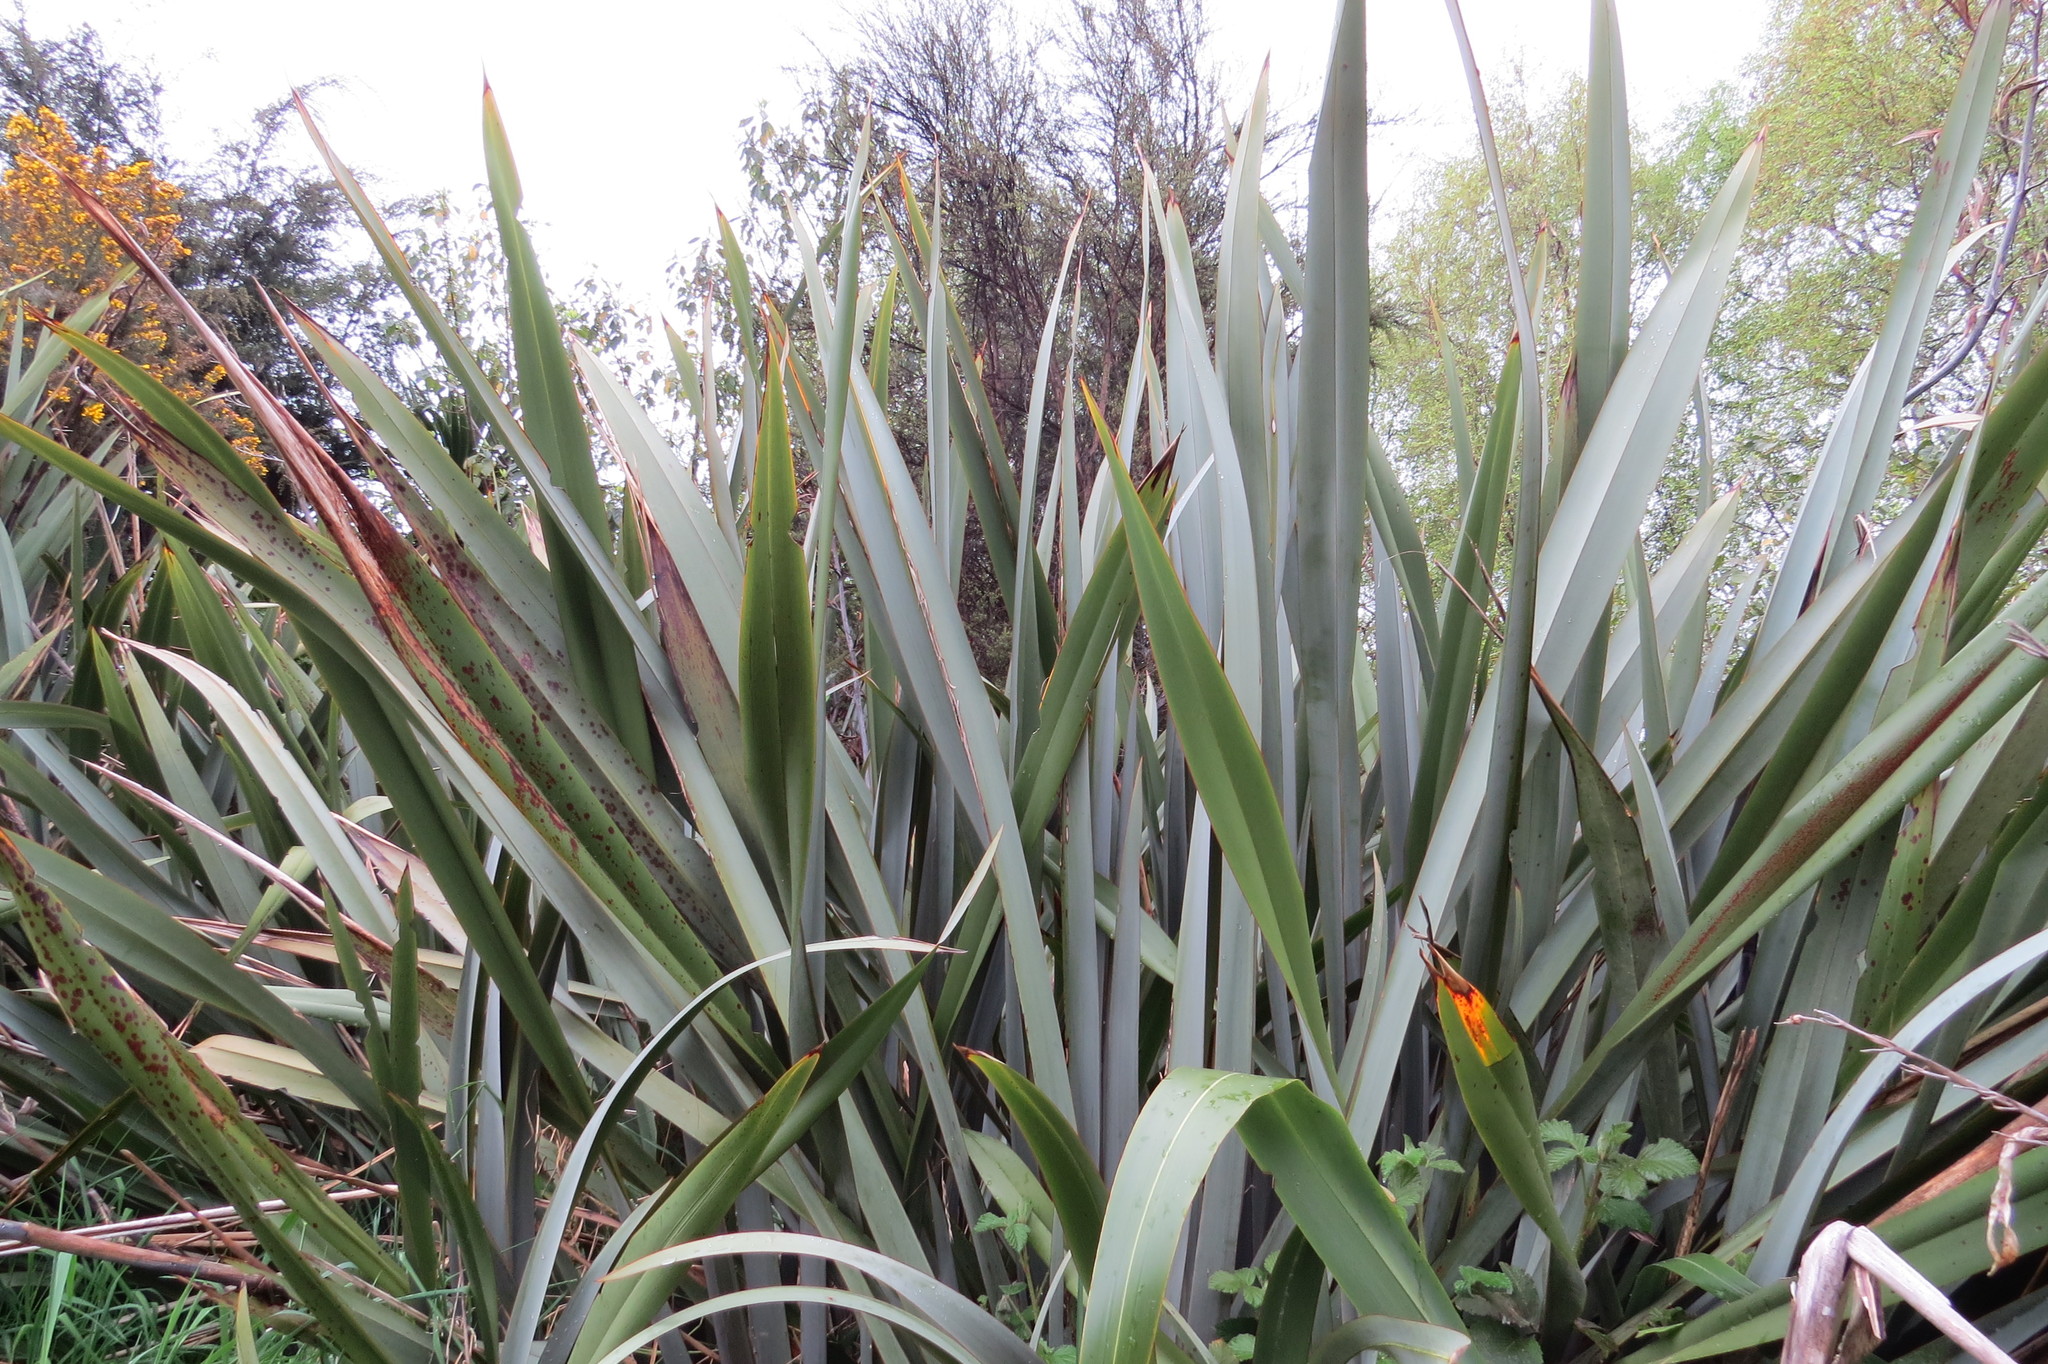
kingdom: Plantae
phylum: Tracheophyta
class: Liliopsida
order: Asparagales
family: Asphodelaceae
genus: Phormium
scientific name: Phormium tenax
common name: New zealand flax
